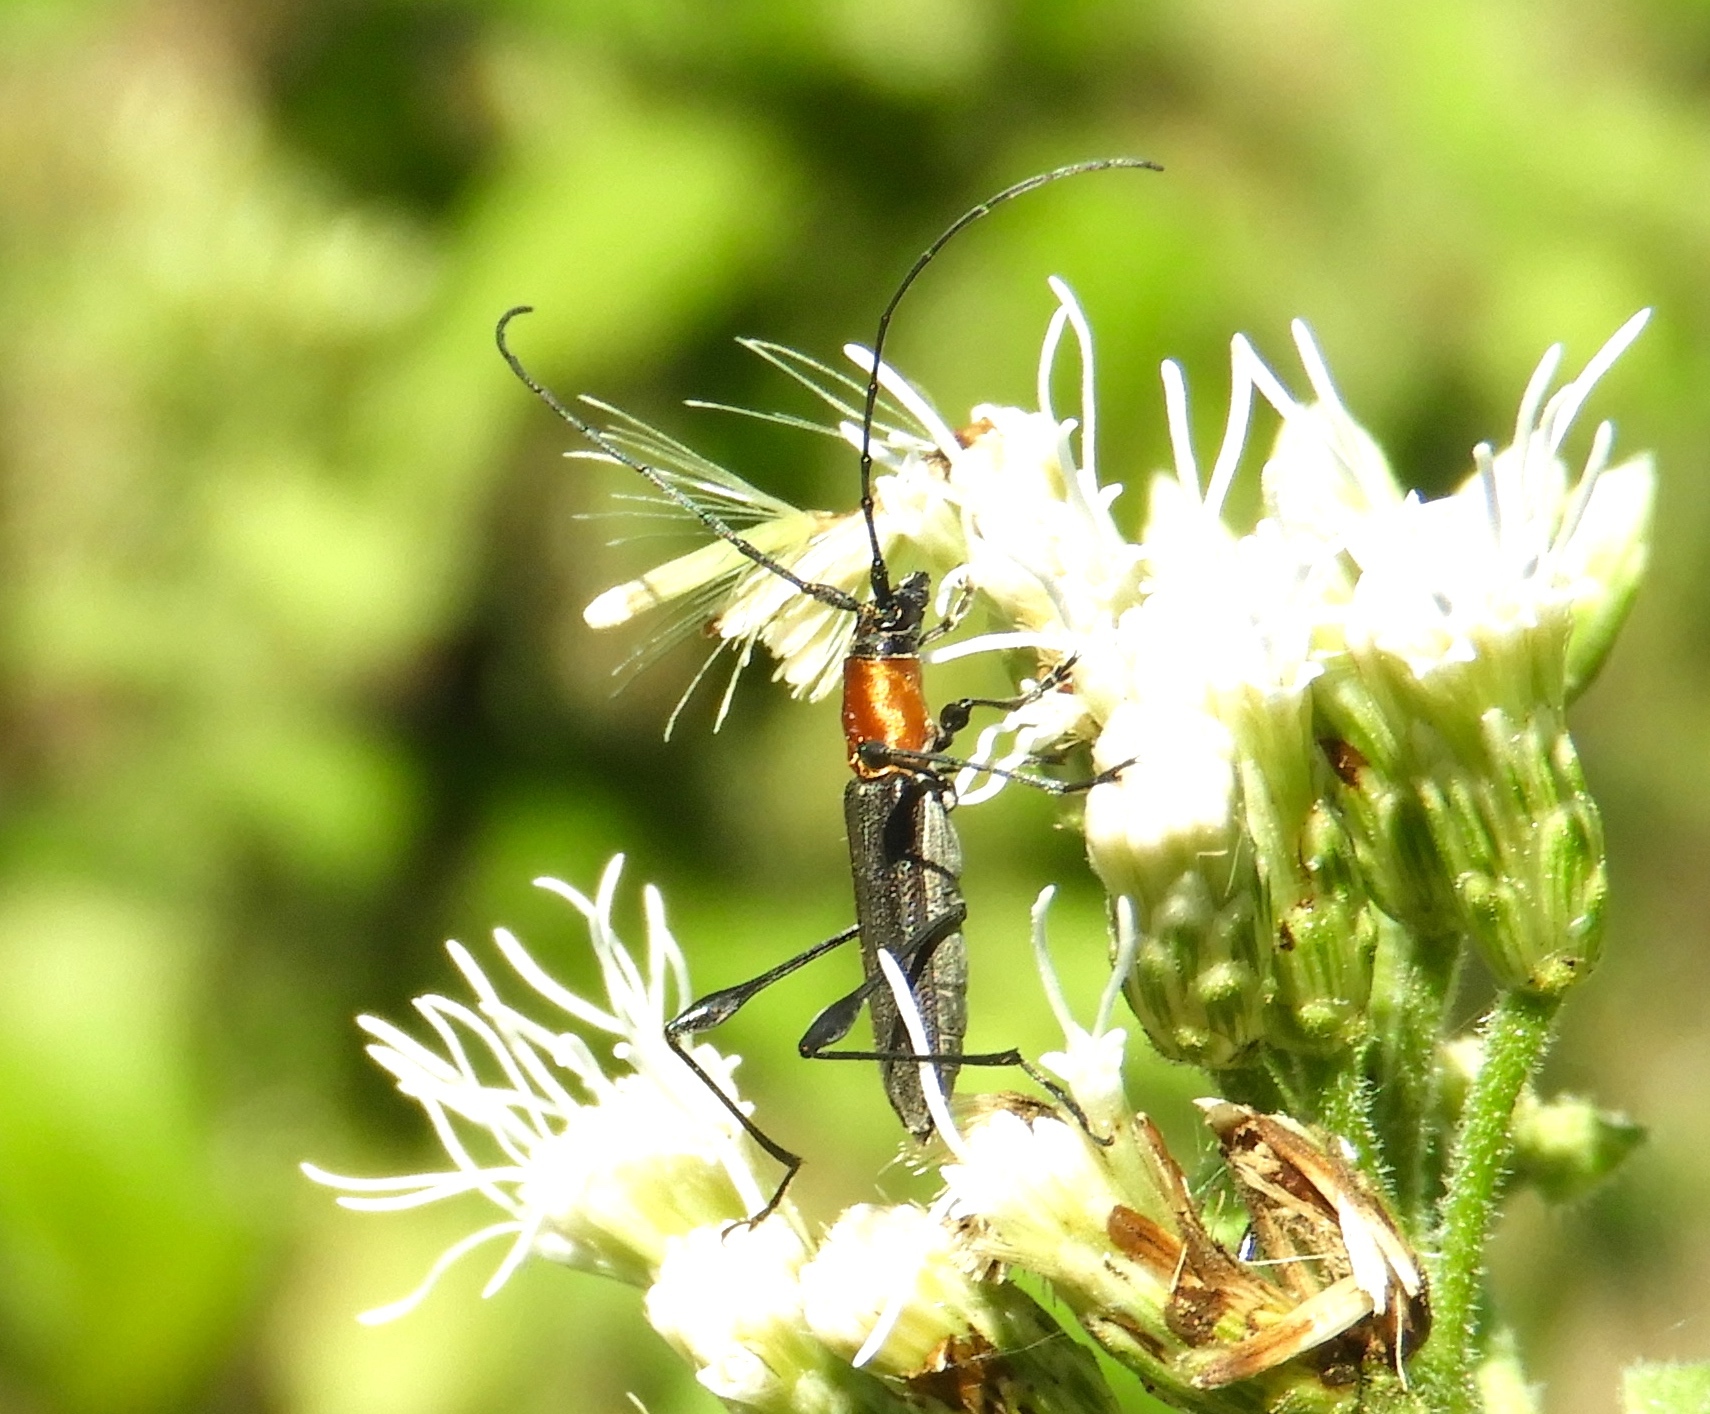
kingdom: Animalia
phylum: Arthropoda
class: Insecta
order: Coleoptera
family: Cerambycidae
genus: Rhopalophora
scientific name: Rhopalophora rugicollis
